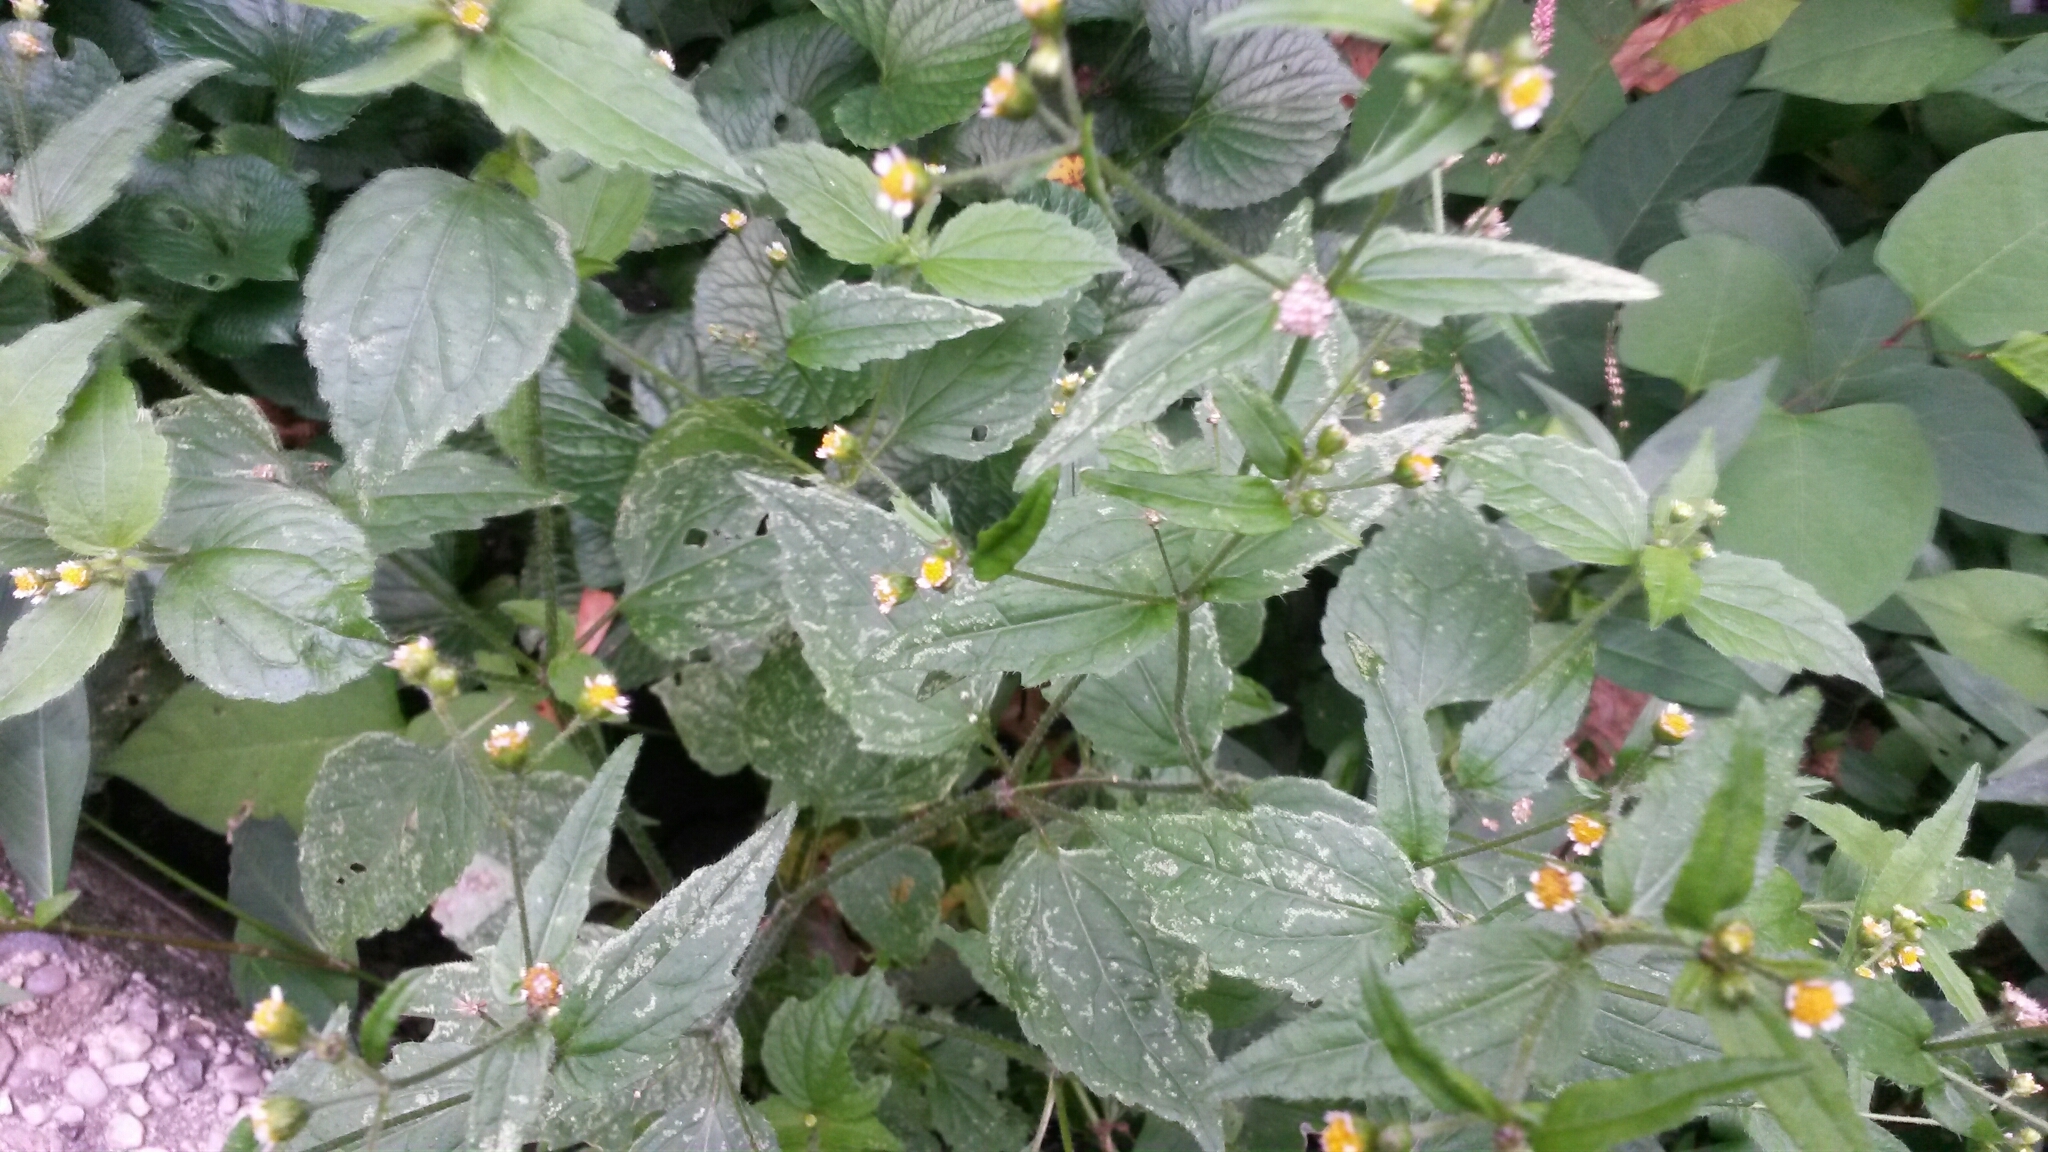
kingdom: Plantae
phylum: Tracheophyta
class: Magnoliopsida
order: Asterales
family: Asteraceae
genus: Galinsoga
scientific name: Galinsoga quadriradiata
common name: Shaggy soldier
